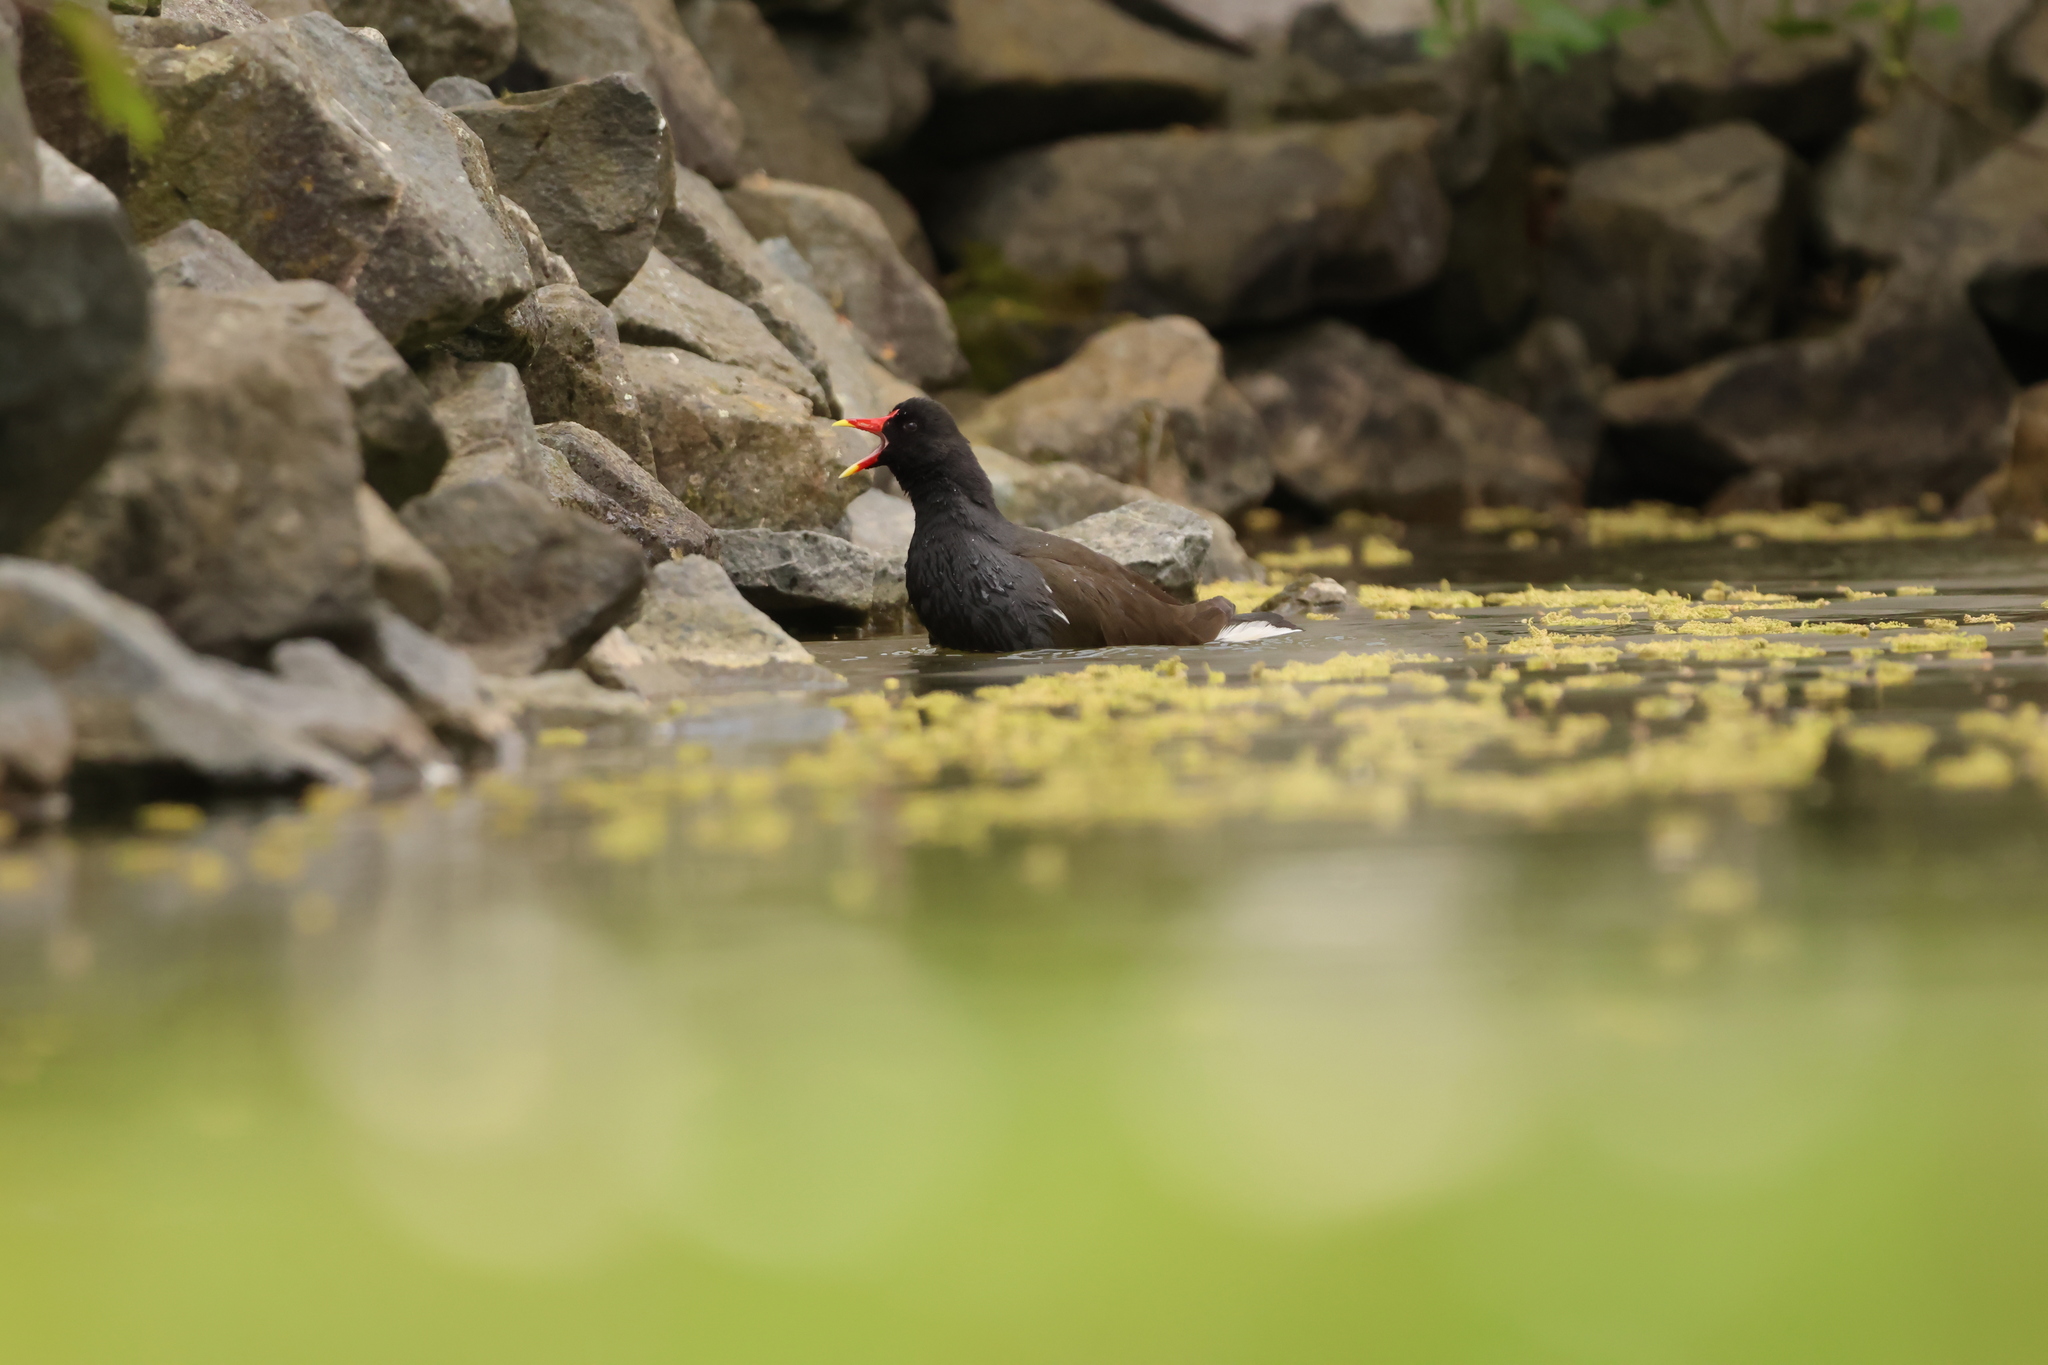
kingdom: Animalia
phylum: Chordata
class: Aves
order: Gruiformes
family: Rallidae
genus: Gallinula
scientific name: Gallinula chloropus
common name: Common moorhen
